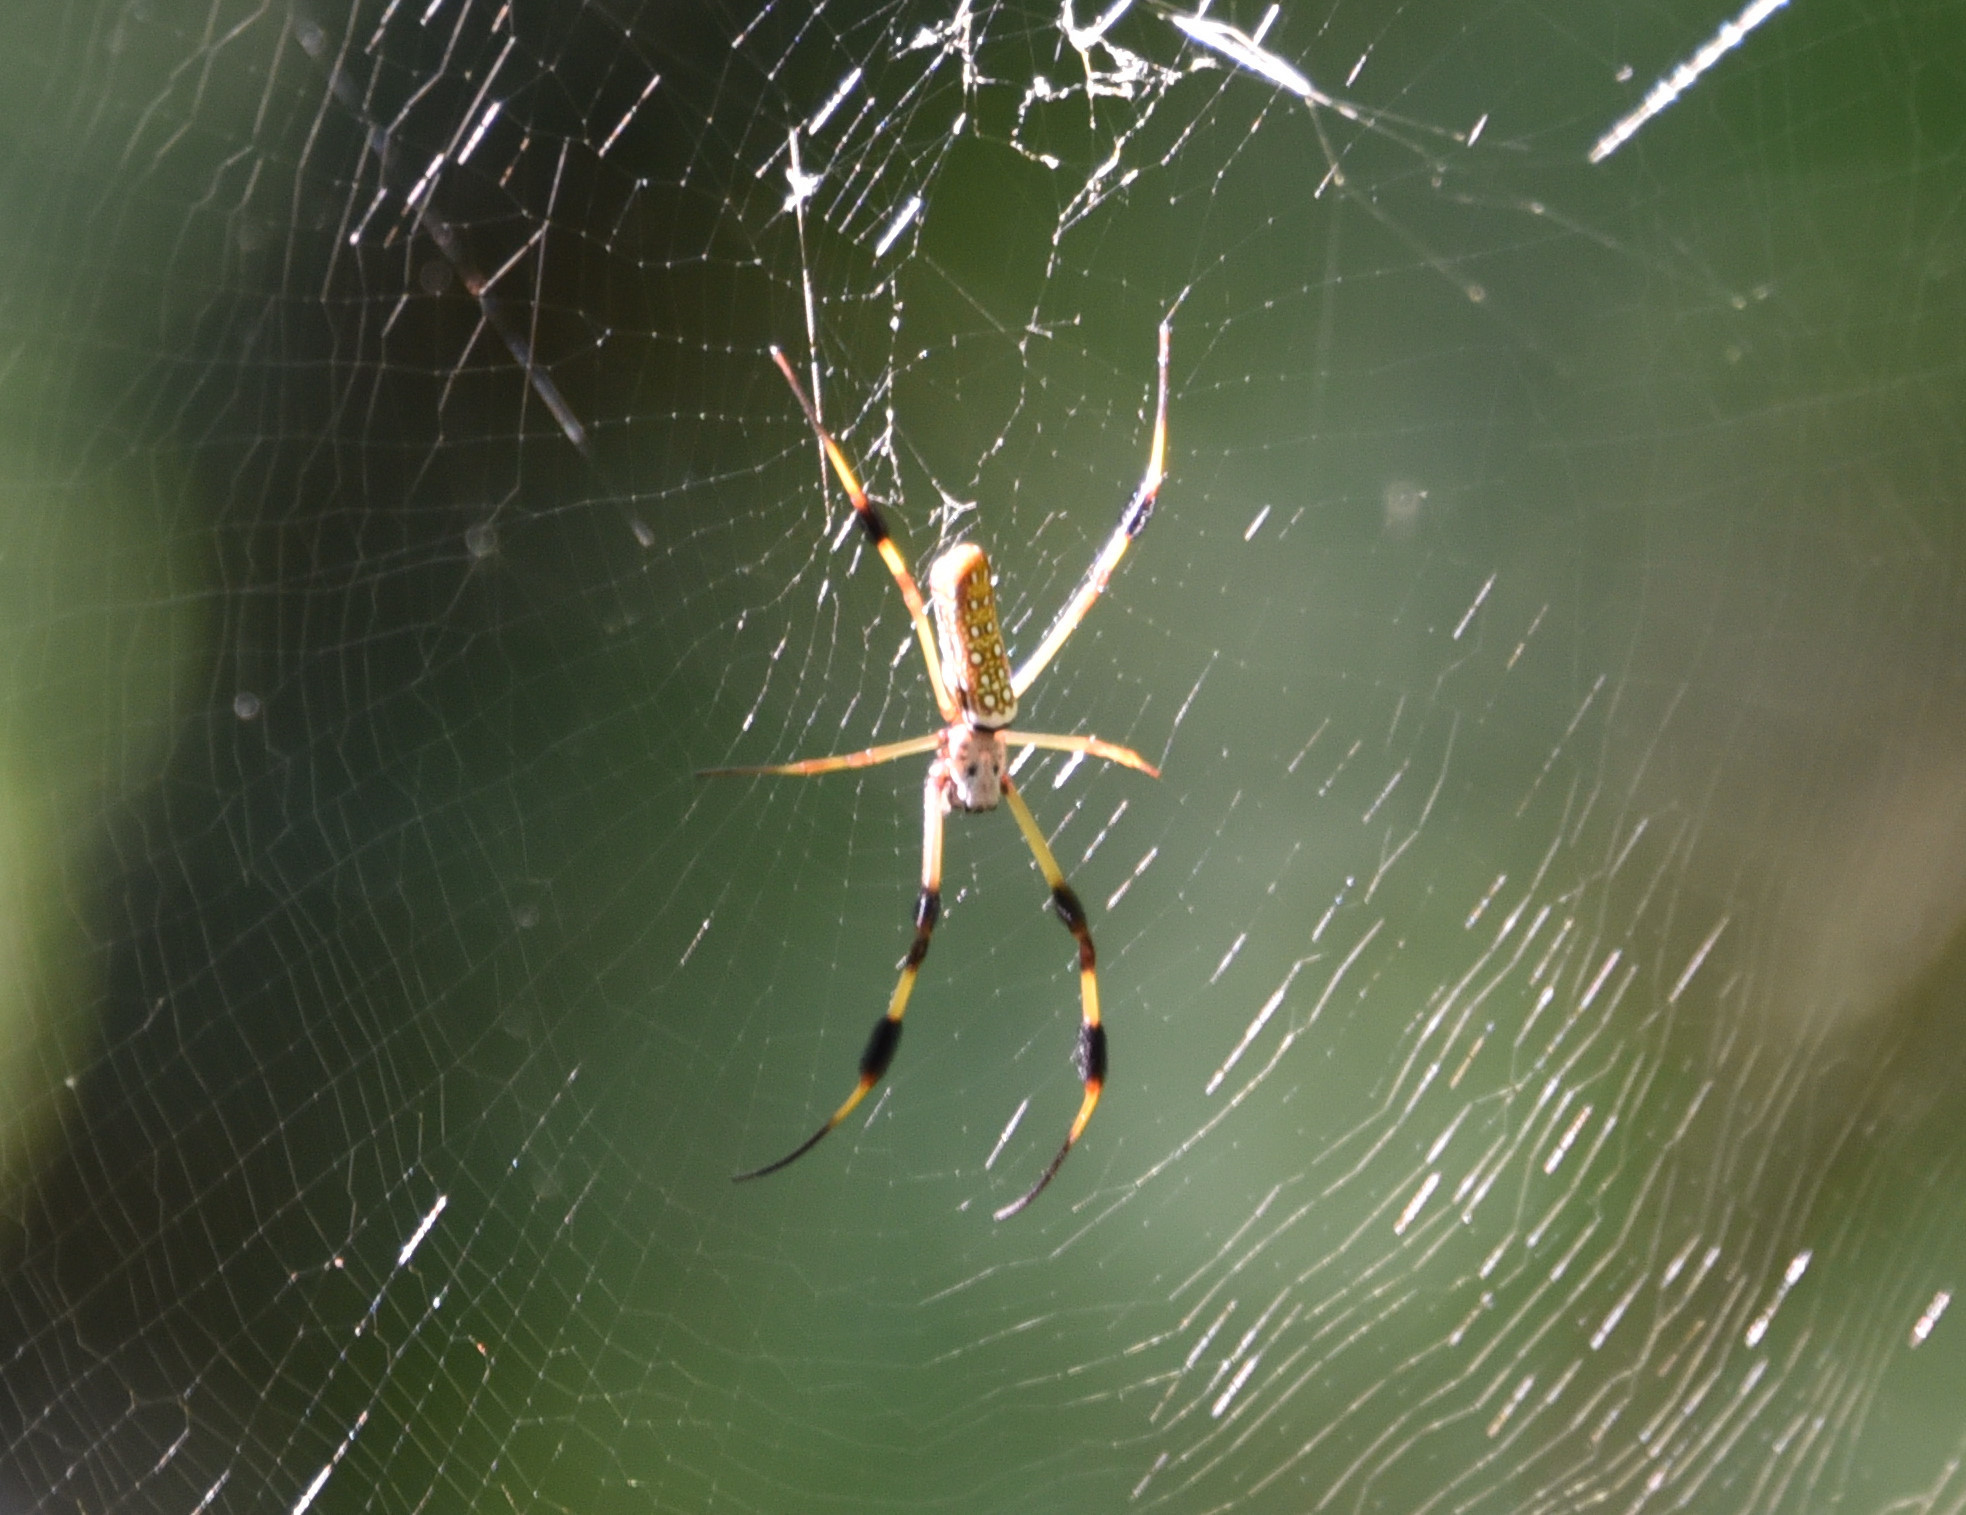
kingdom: Animalia
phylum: Arthropoda
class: Arachnida
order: Araneae
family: Araneidae
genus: Trichonephila
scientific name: Trichonephila clavipes
